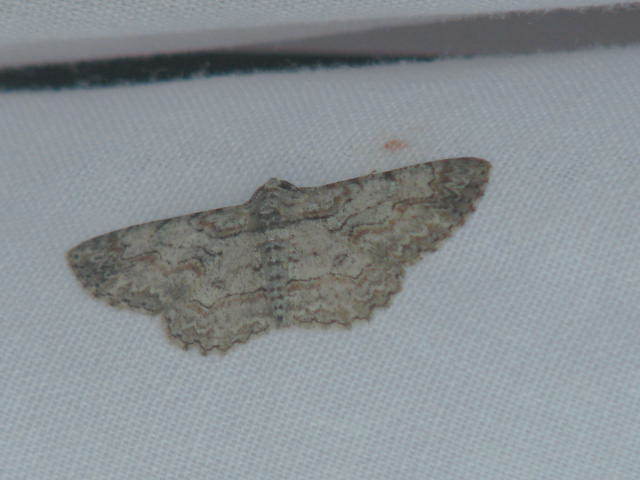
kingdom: Animalia
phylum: Arthropoda
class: Insecta
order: Lepidoptera
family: Geometridae
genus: Iridopsis
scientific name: Iridopsis defectaria
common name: Brown-shaded gray
